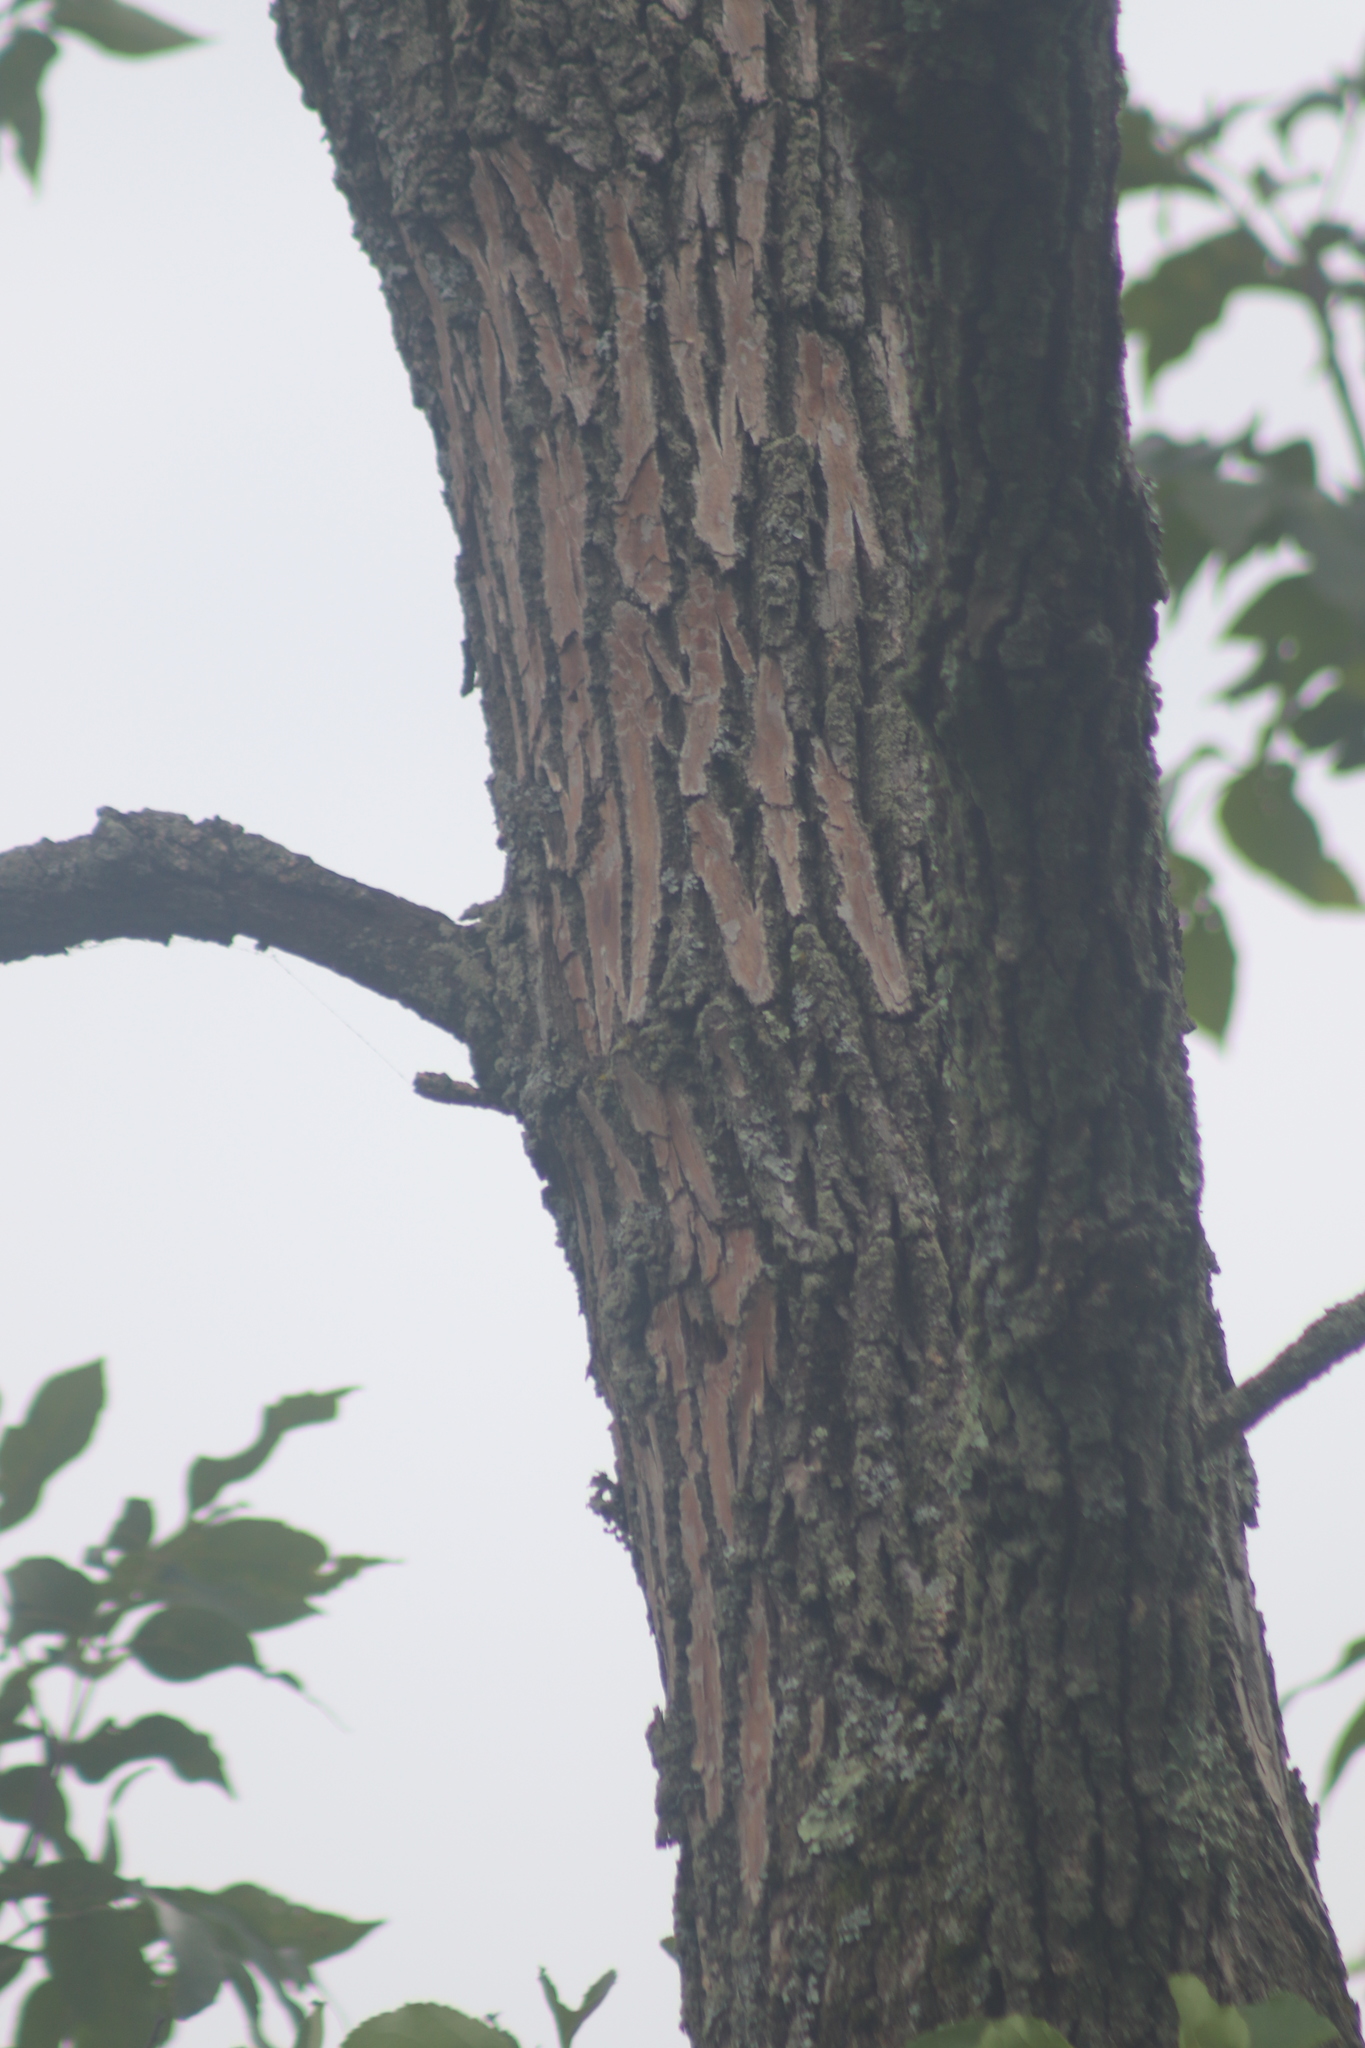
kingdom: Animalia
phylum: Arthropoda
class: Insecta
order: Coleoptera
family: Buprestidae
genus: Agrilus
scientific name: Agrilus planipennis
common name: Emerald ash borer
